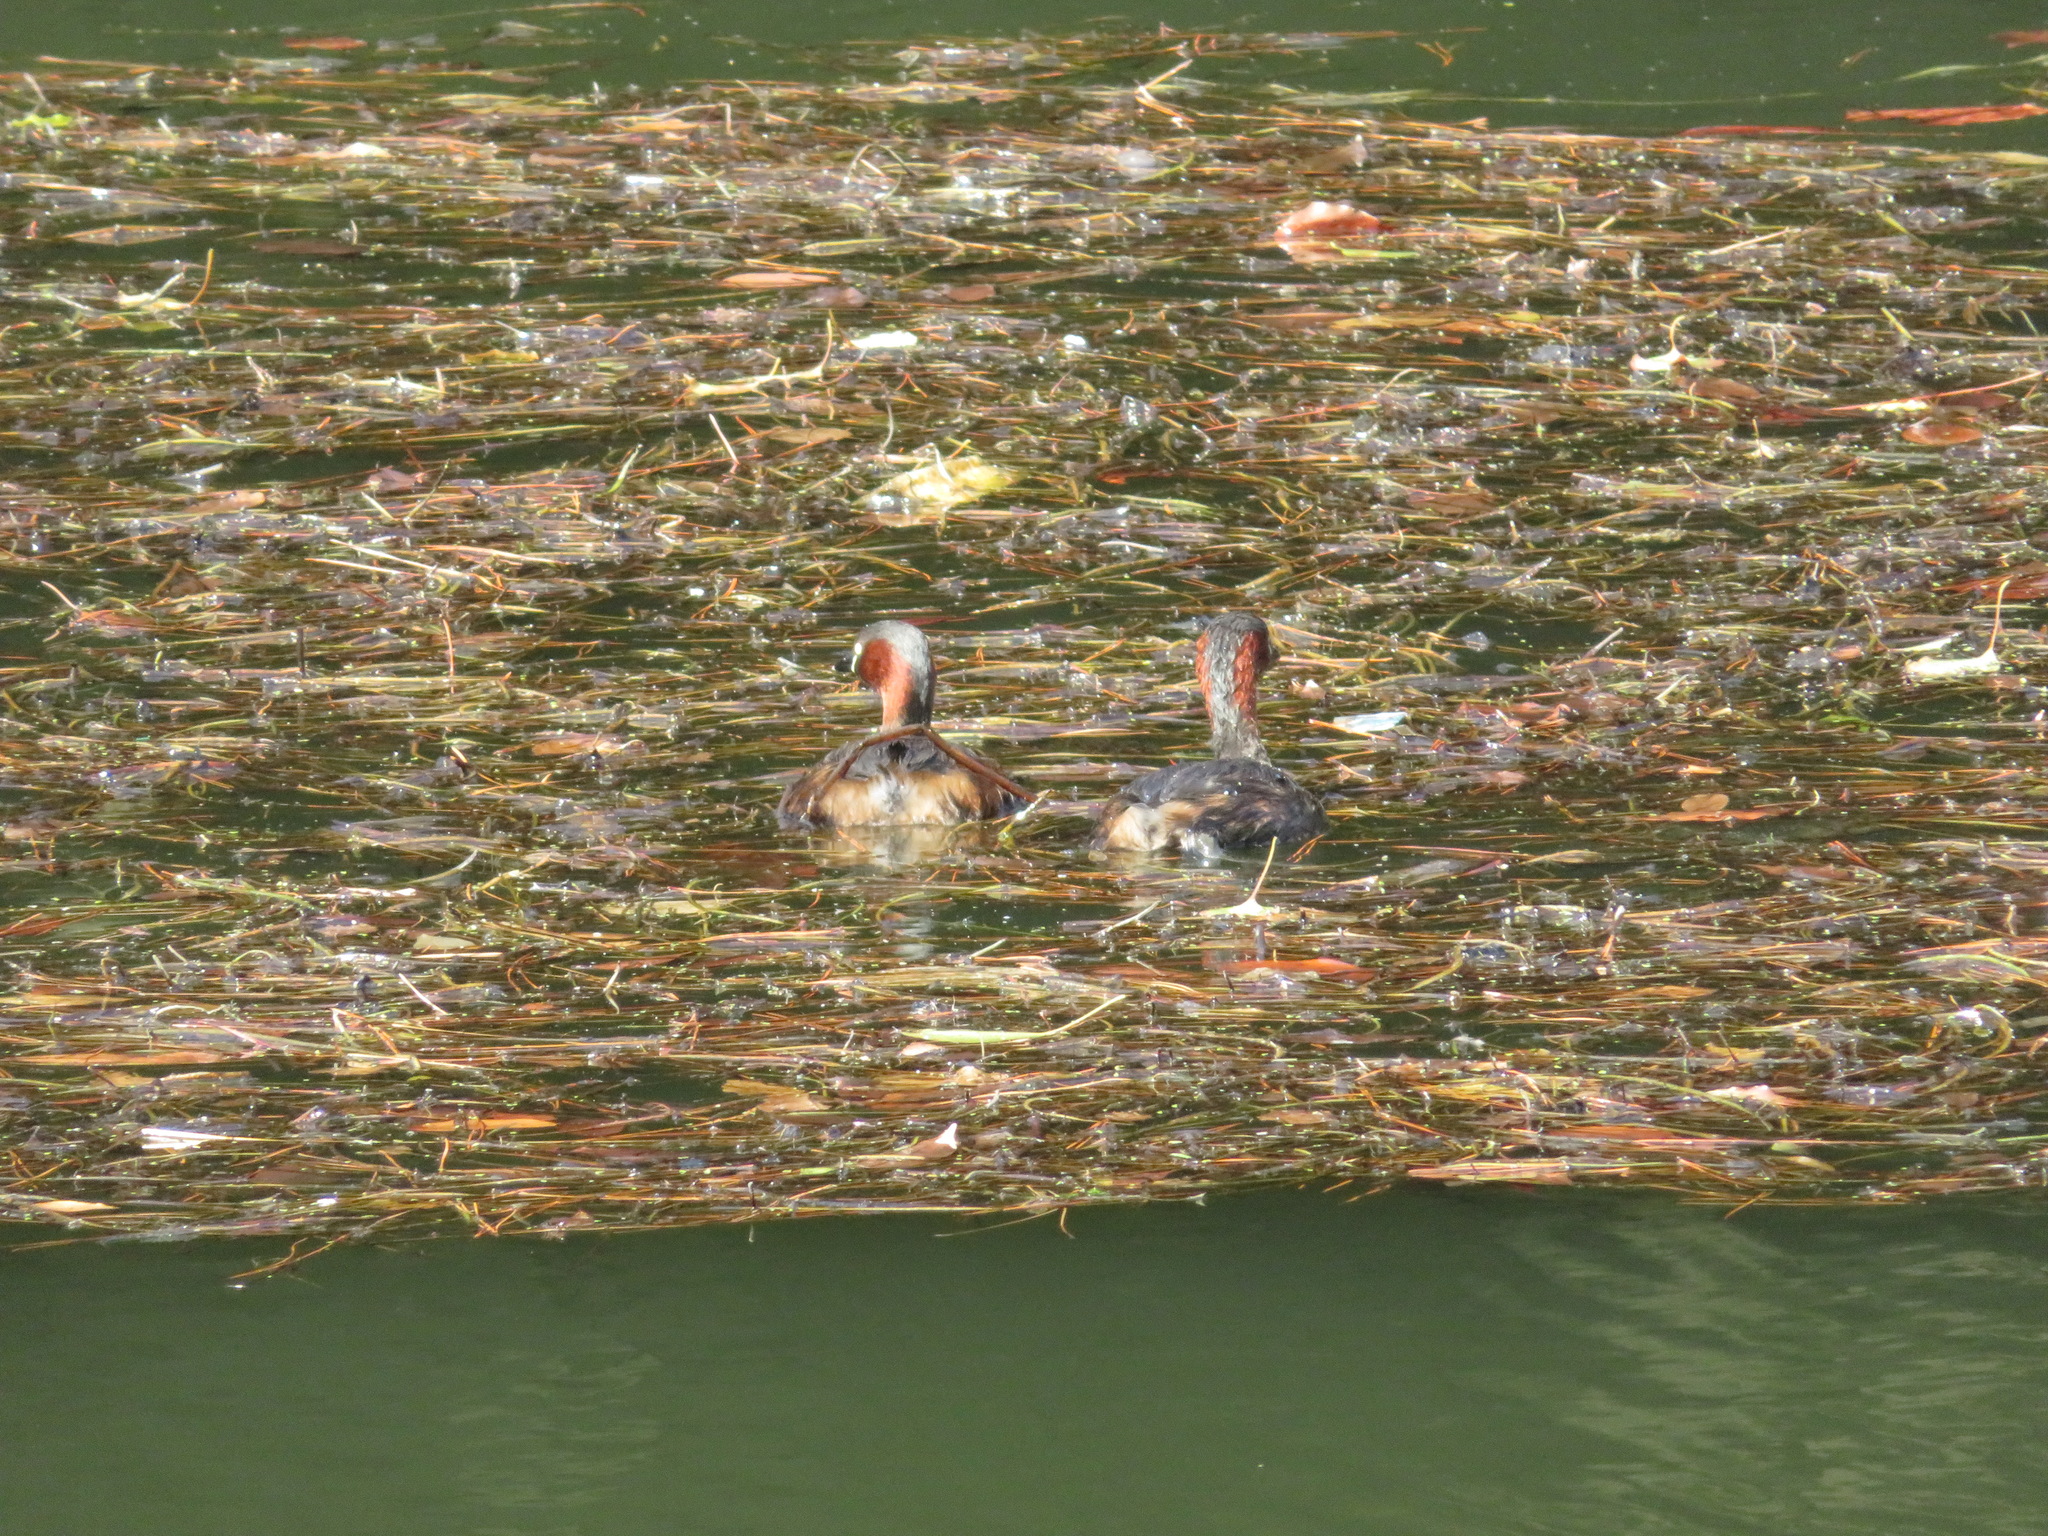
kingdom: Animalia
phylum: Chordata
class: Aves
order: Podicipediformes
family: Podicipedidae
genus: Tachybaptus
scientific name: Tachybaptus ruficollis
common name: Little grebe
